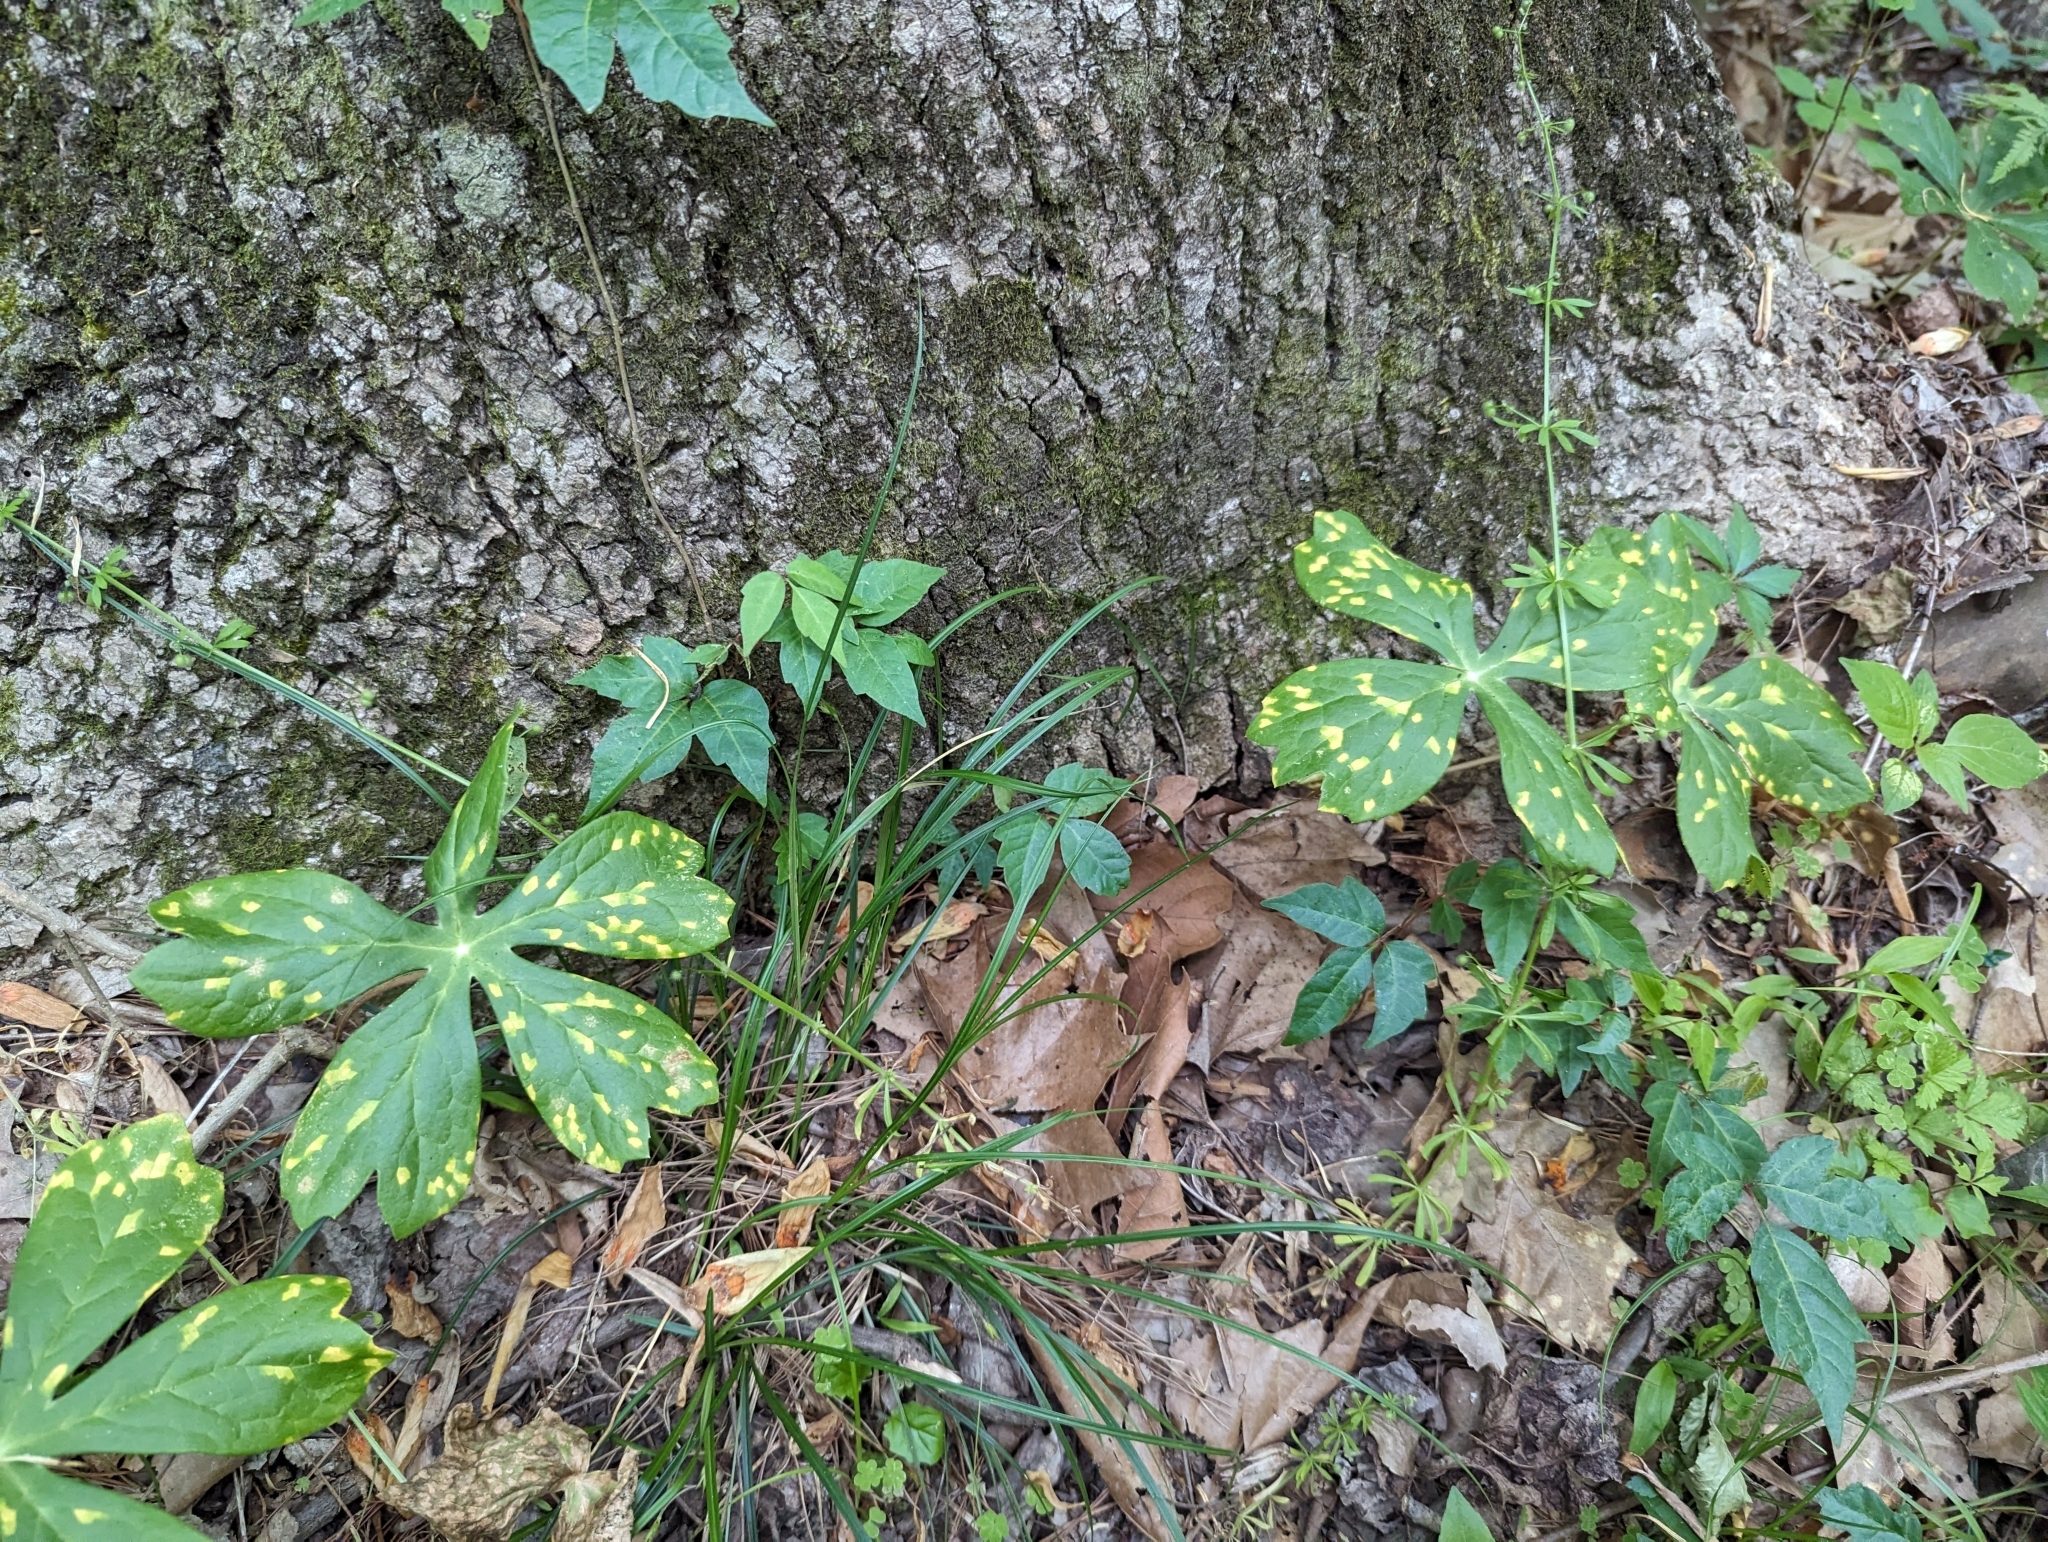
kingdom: Fungi
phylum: Basidiomycota
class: Pucciniomycetes
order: Pucciniales
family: Pucciniaceae
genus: Puccinia
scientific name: Puccinia podophylli
